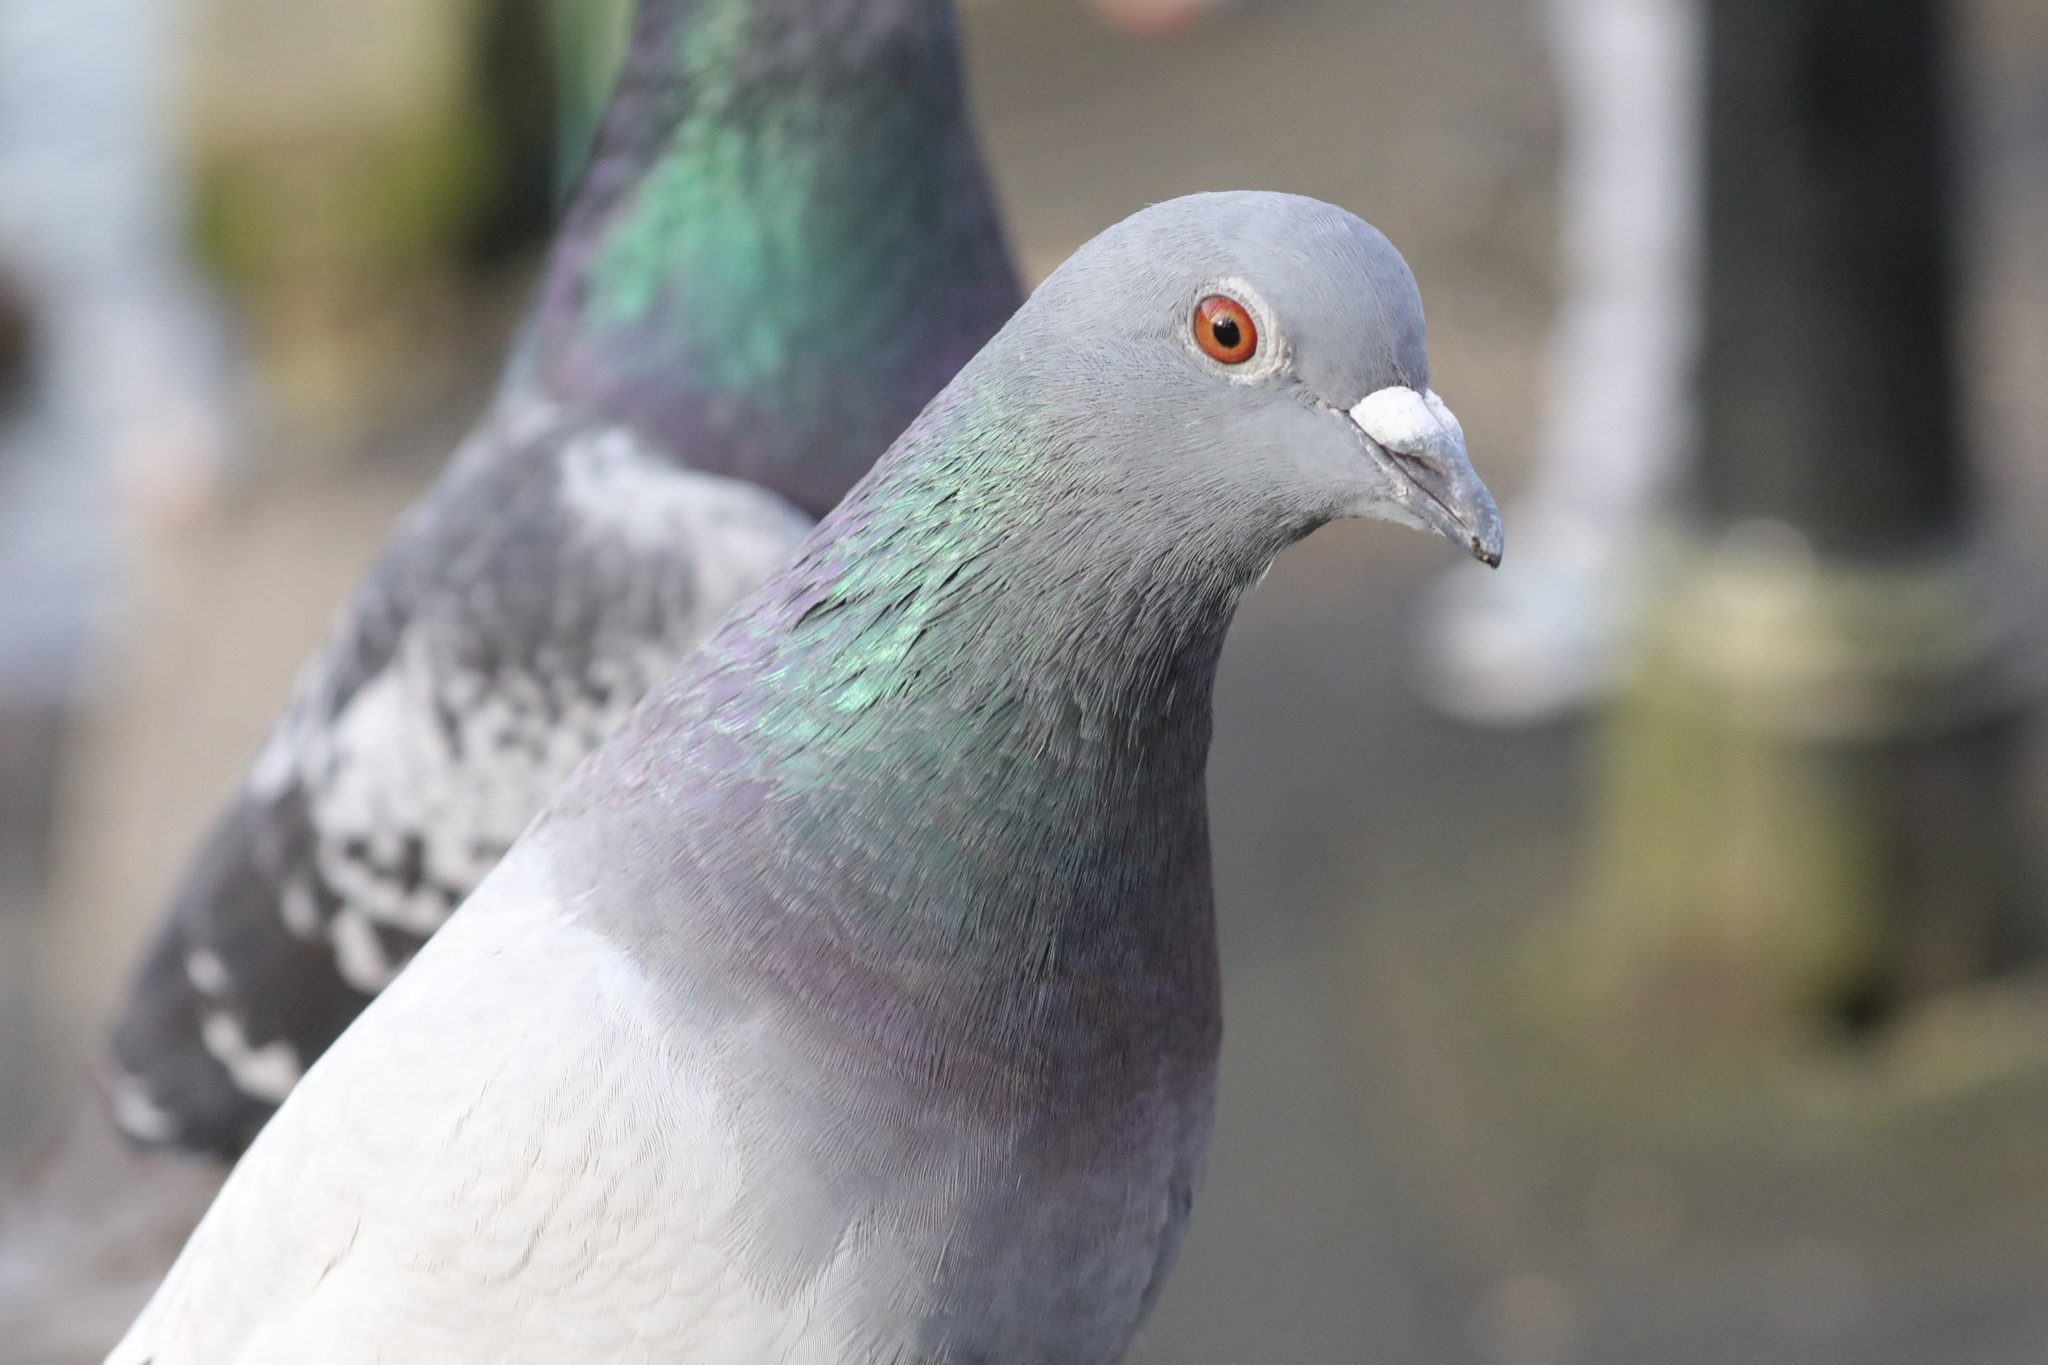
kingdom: Animalia
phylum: Chordata
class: Aves
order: Columbiformes
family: Columbidae
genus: Columba
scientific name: Columba livia
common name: Rock pigeon
